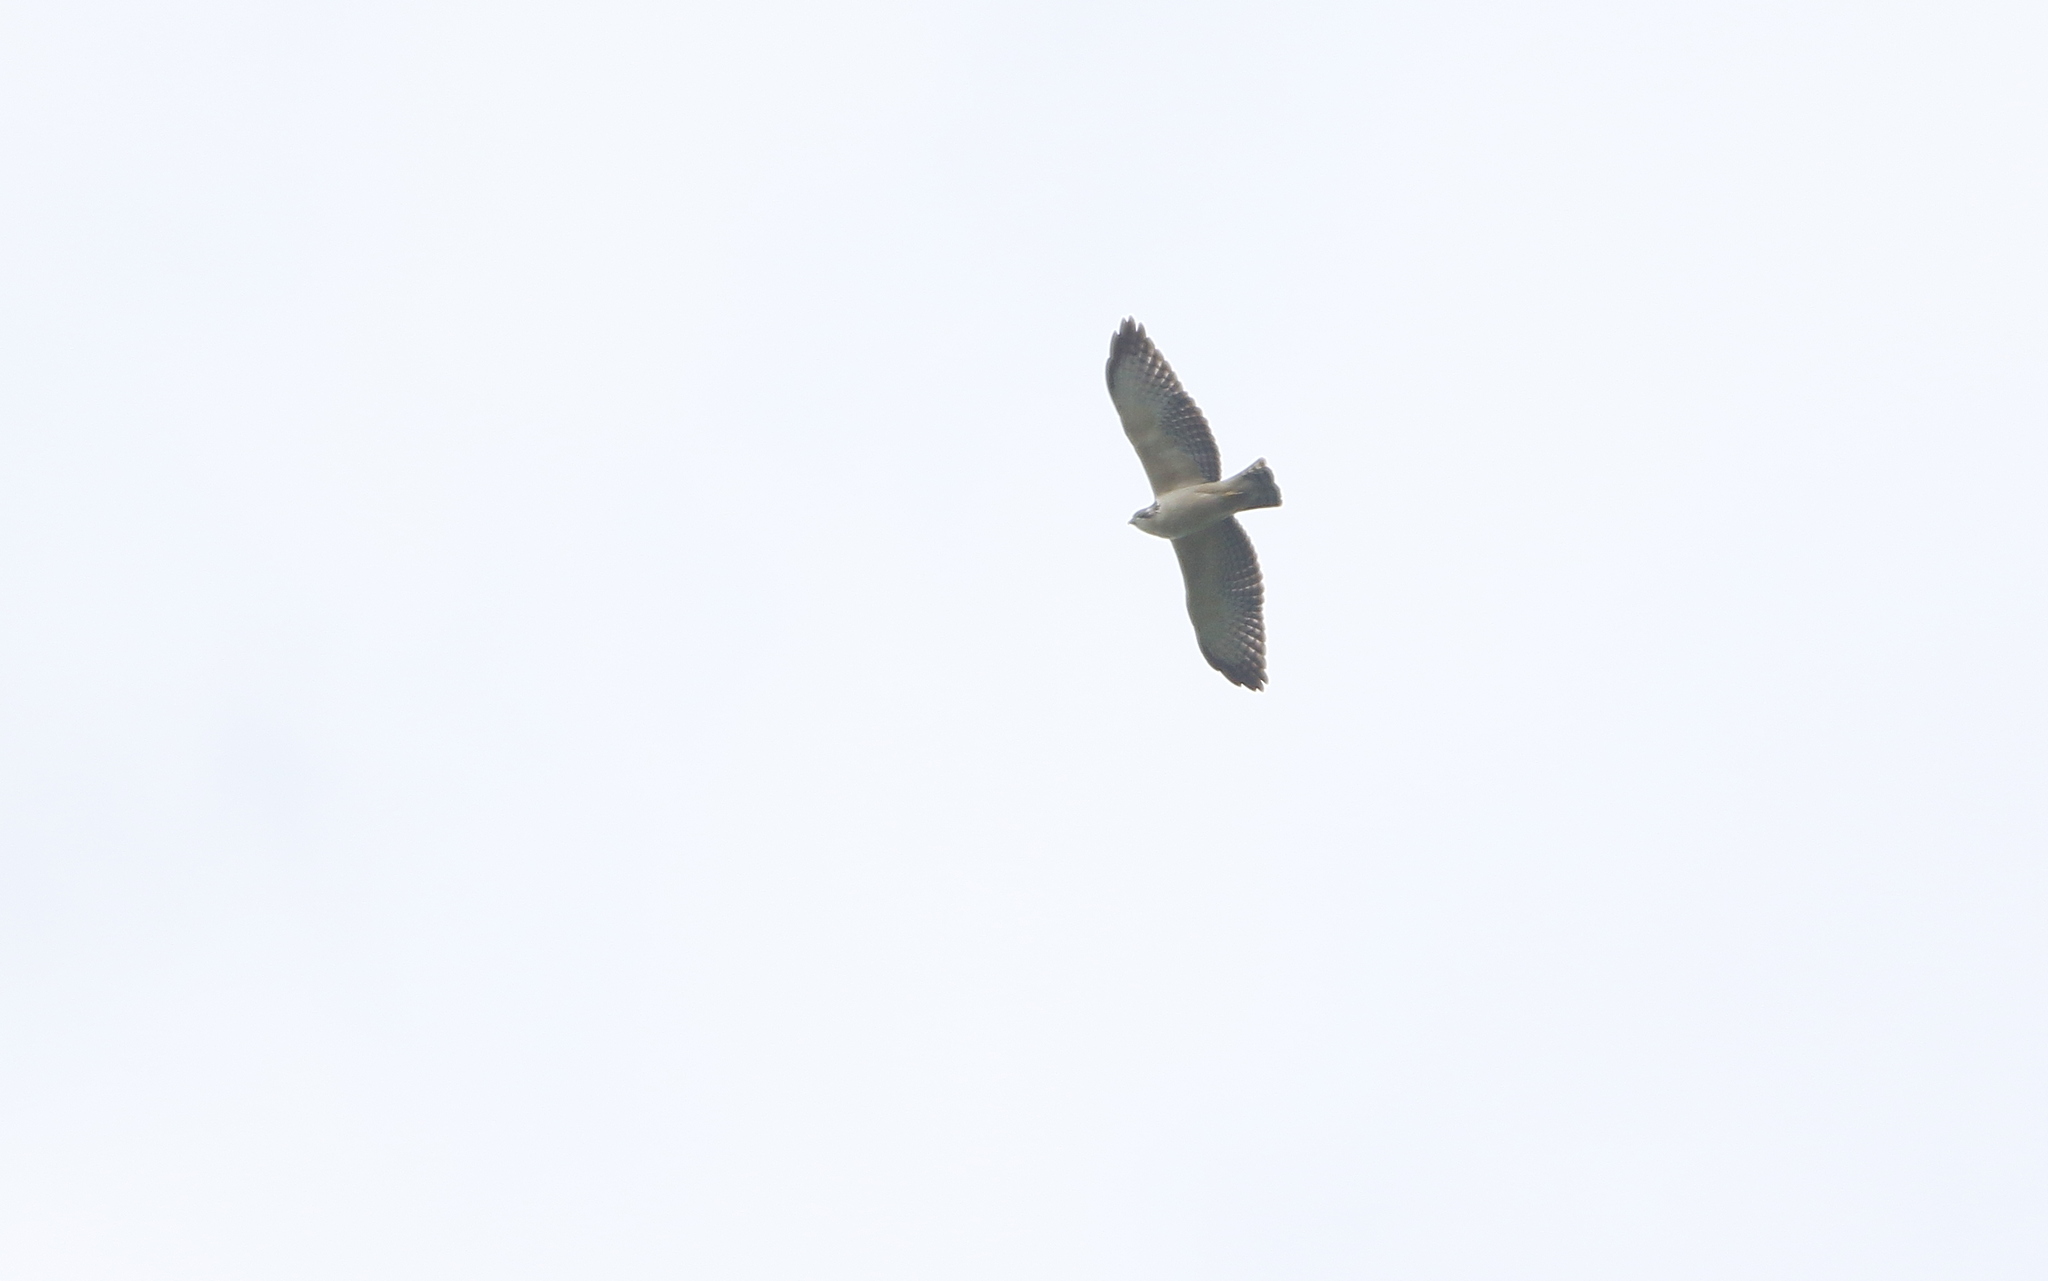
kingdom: Animalia
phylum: Chordata
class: Aves
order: Accipitriformes
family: Accipitridae
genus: Buteo
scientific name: Buteo brachyurus
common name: Short-tailed hawk
